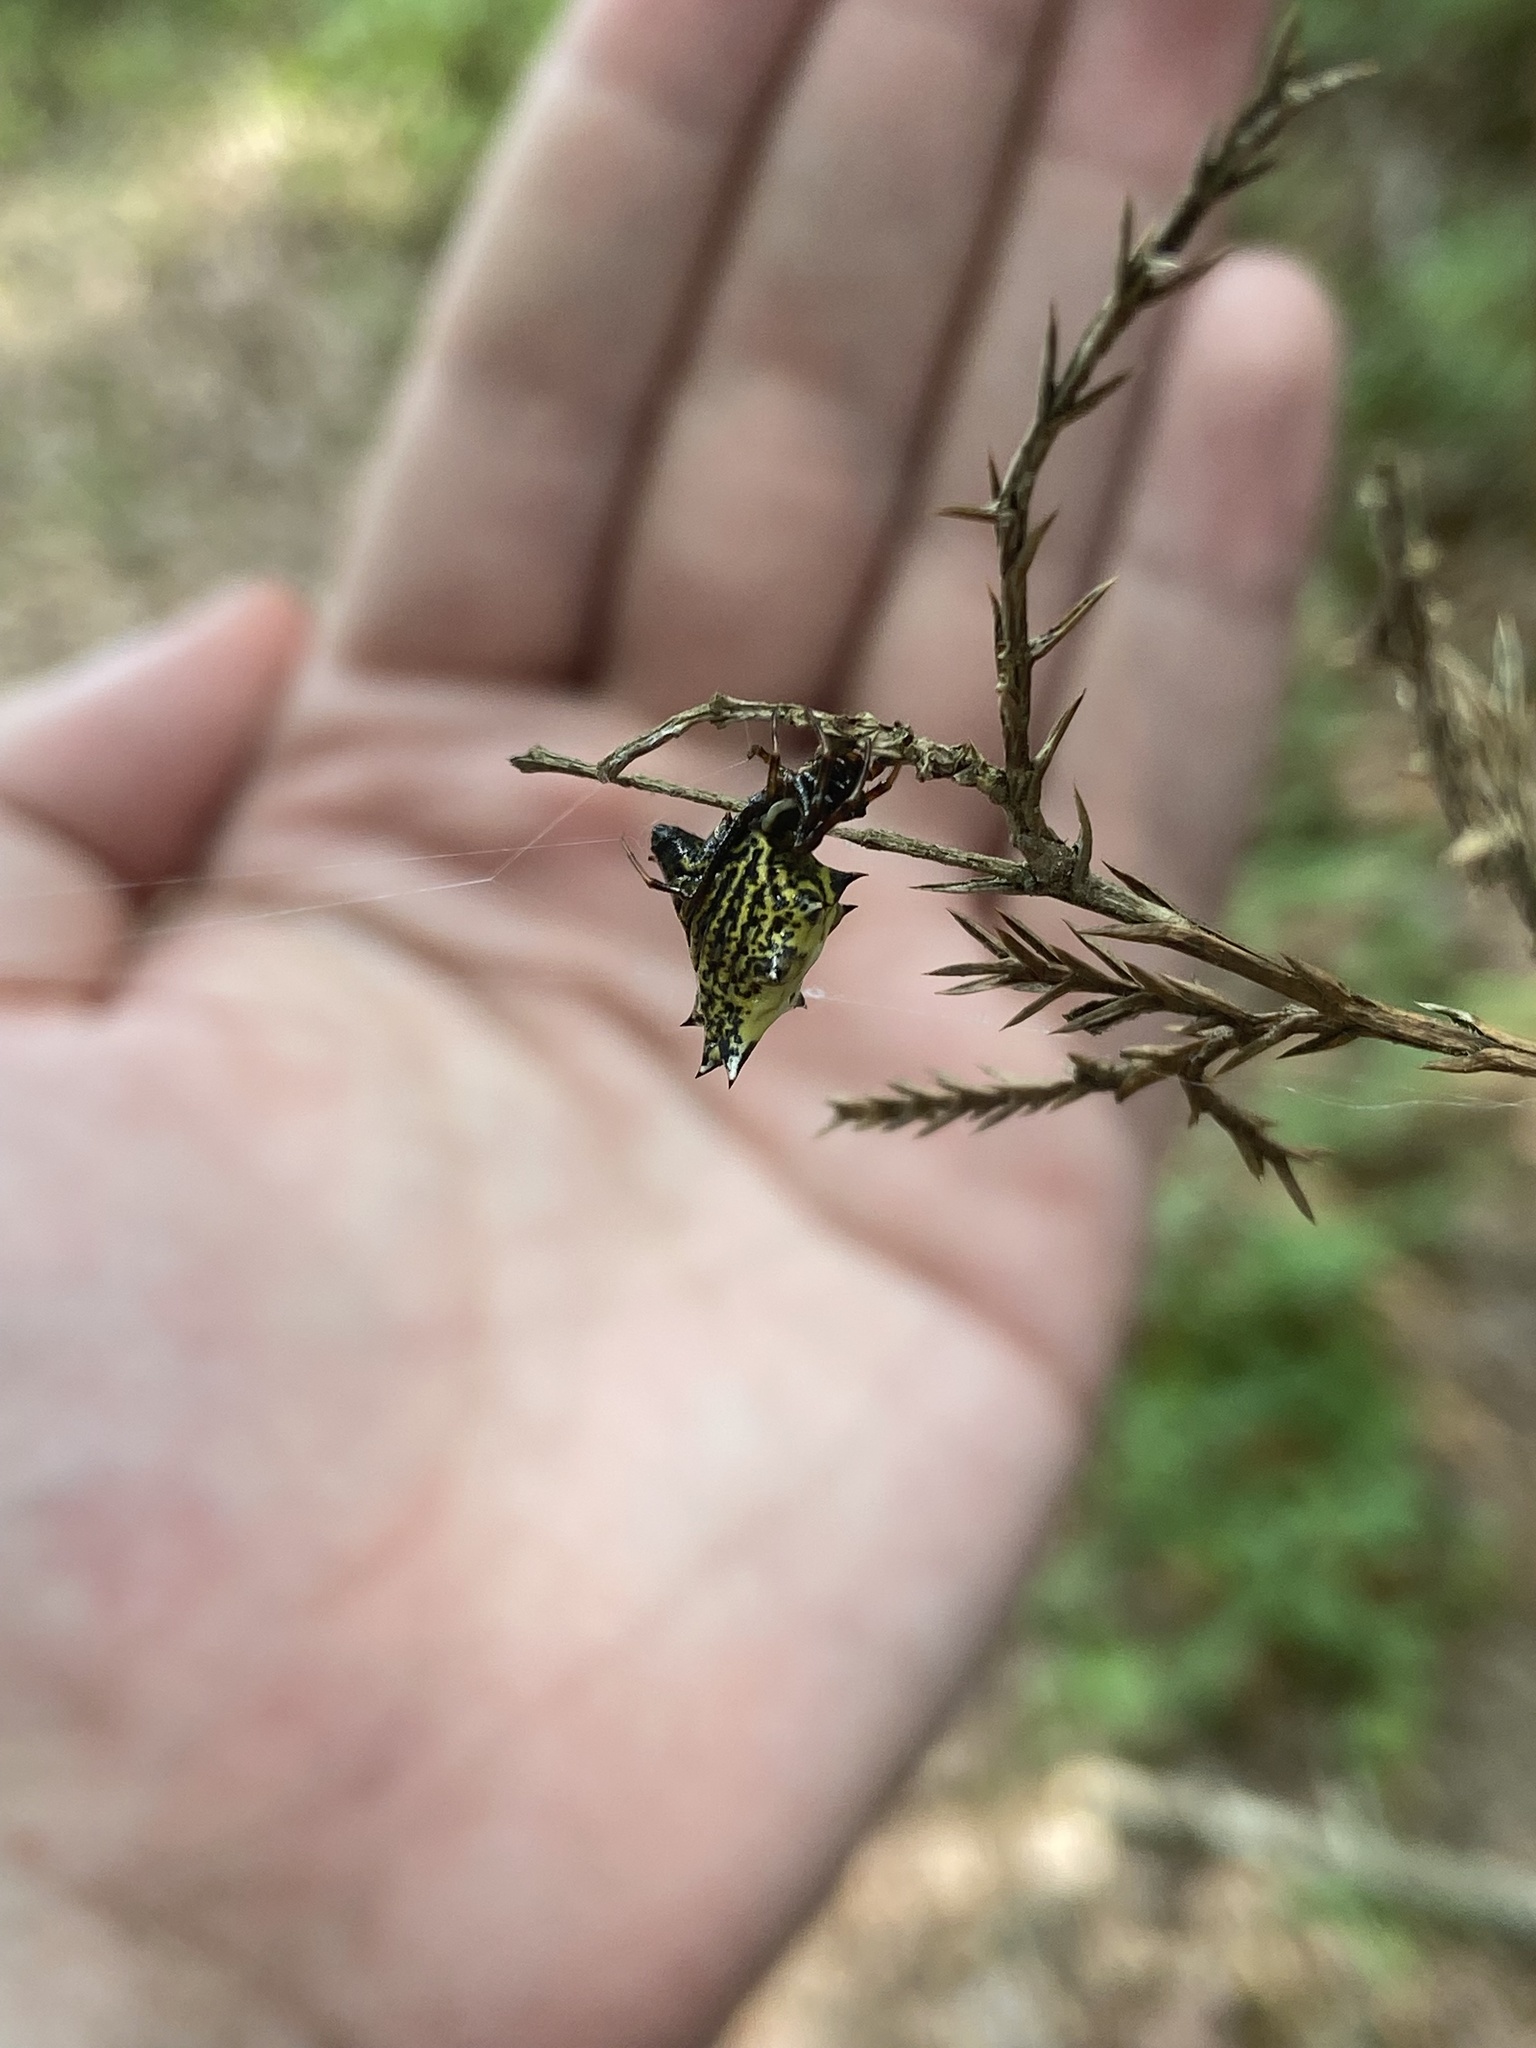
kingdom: Animalia
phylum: Arthropoda
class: Arachnida
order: Araneae
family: Araneidae
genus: Micrathena
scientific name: Micrathena gracilis
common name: Orb weavers
